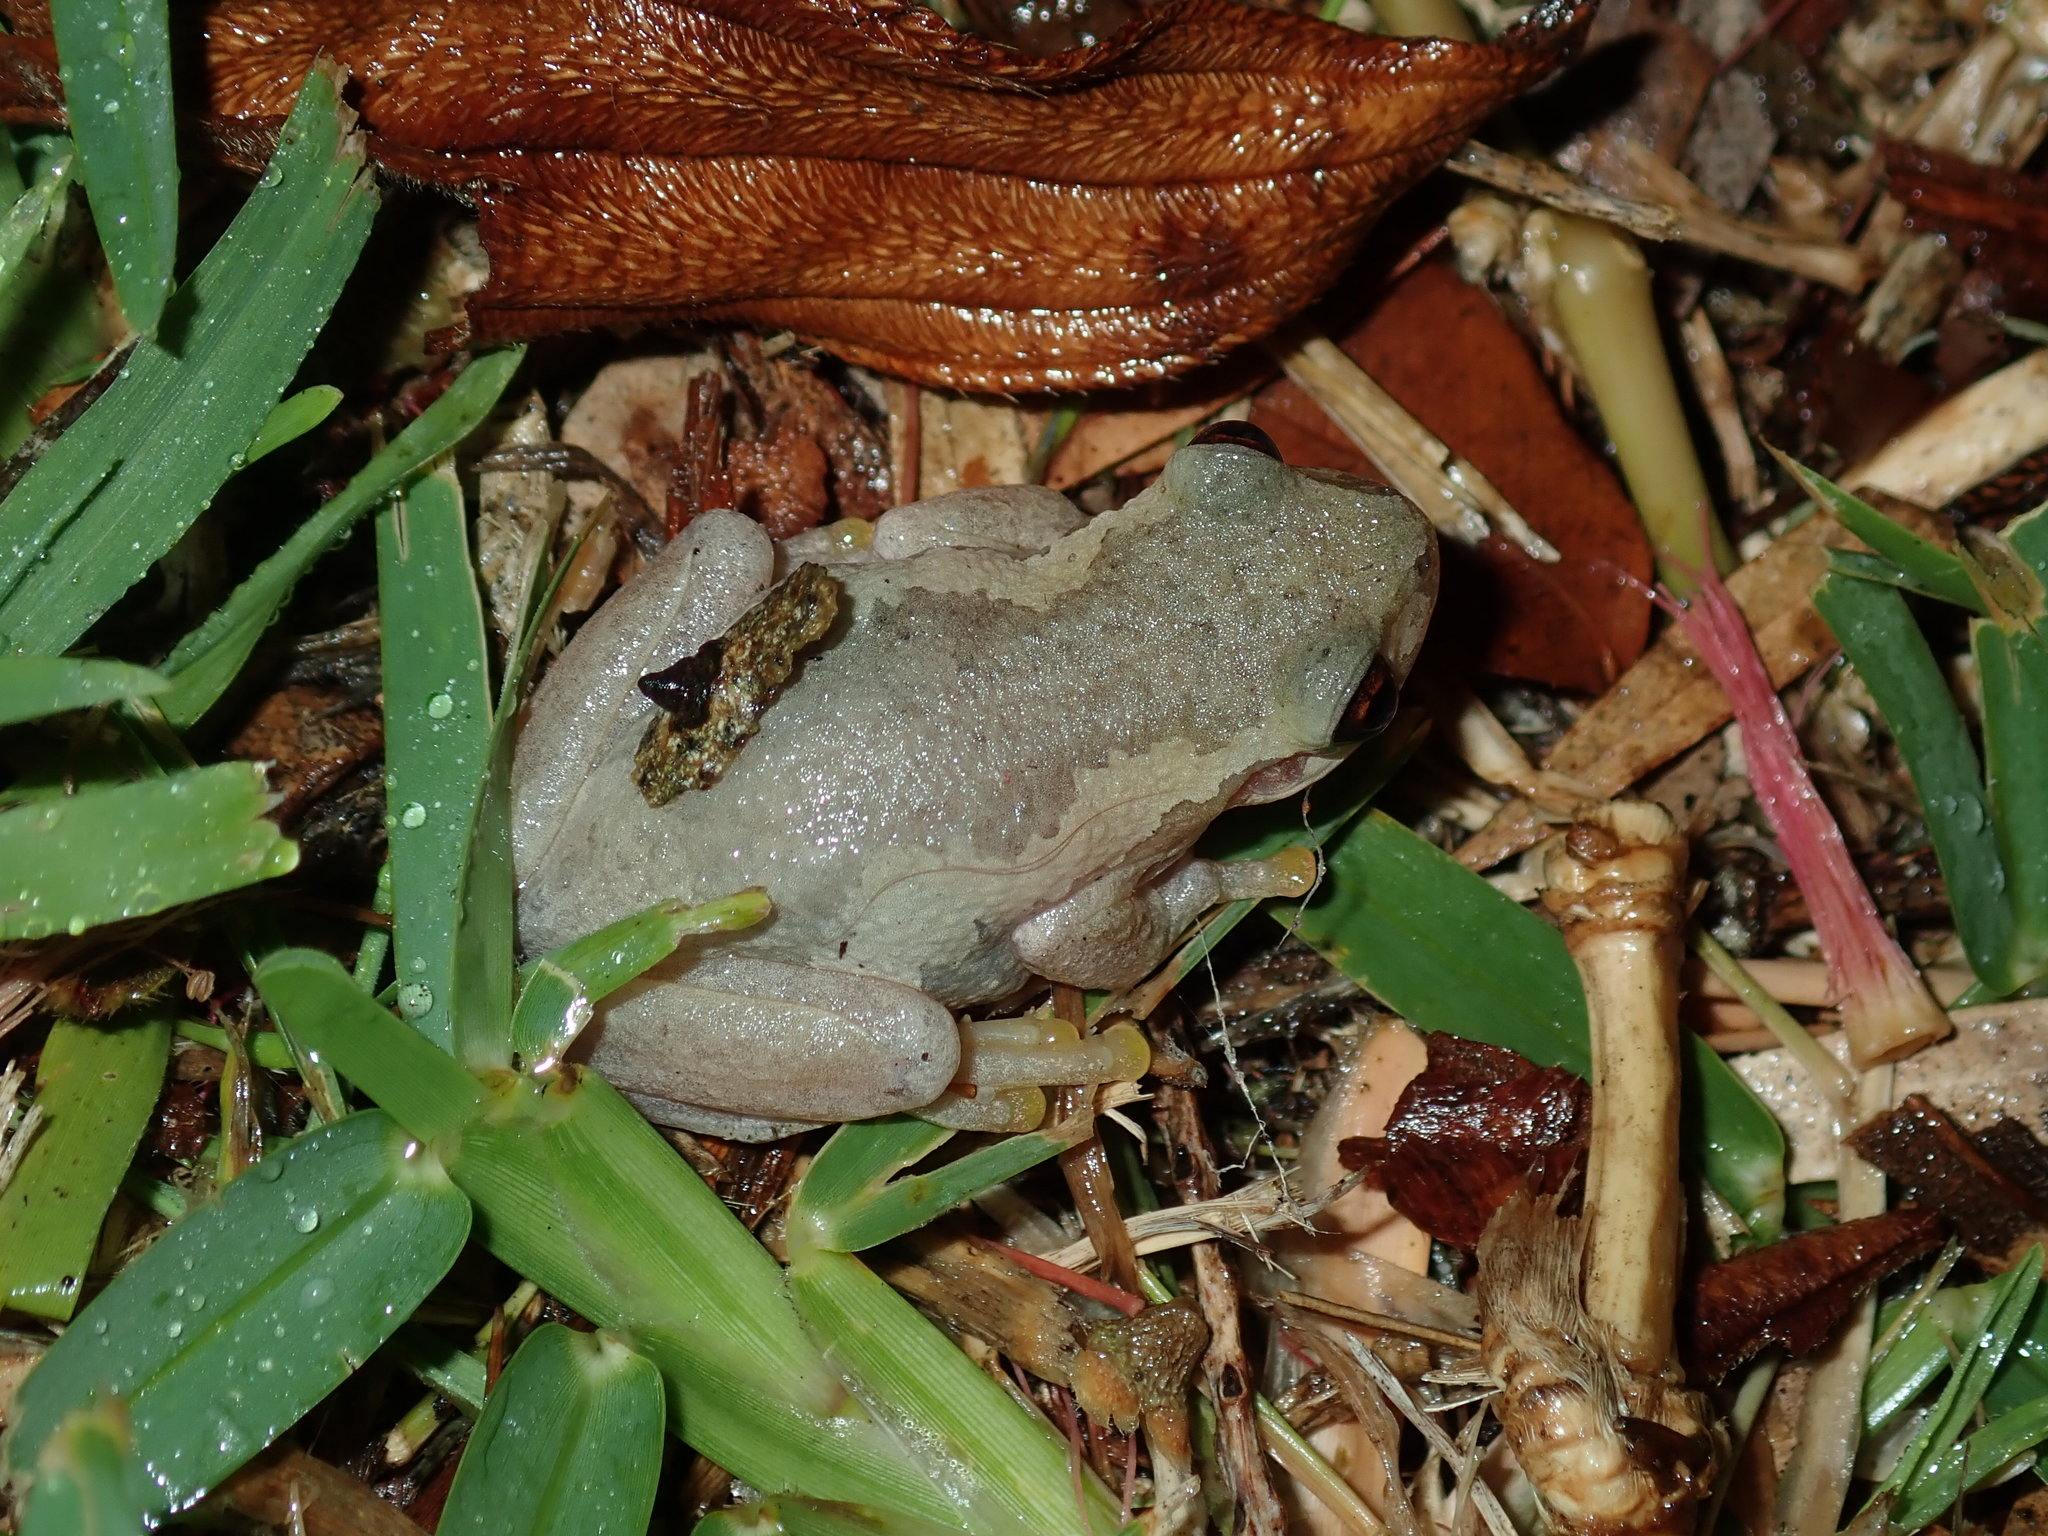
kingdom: Animalia
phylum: Chordata
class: Amphibia
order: Anura
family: Pelodryadidae
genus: Litoria
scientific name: Litoria dentata
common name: Bleating tree frog
